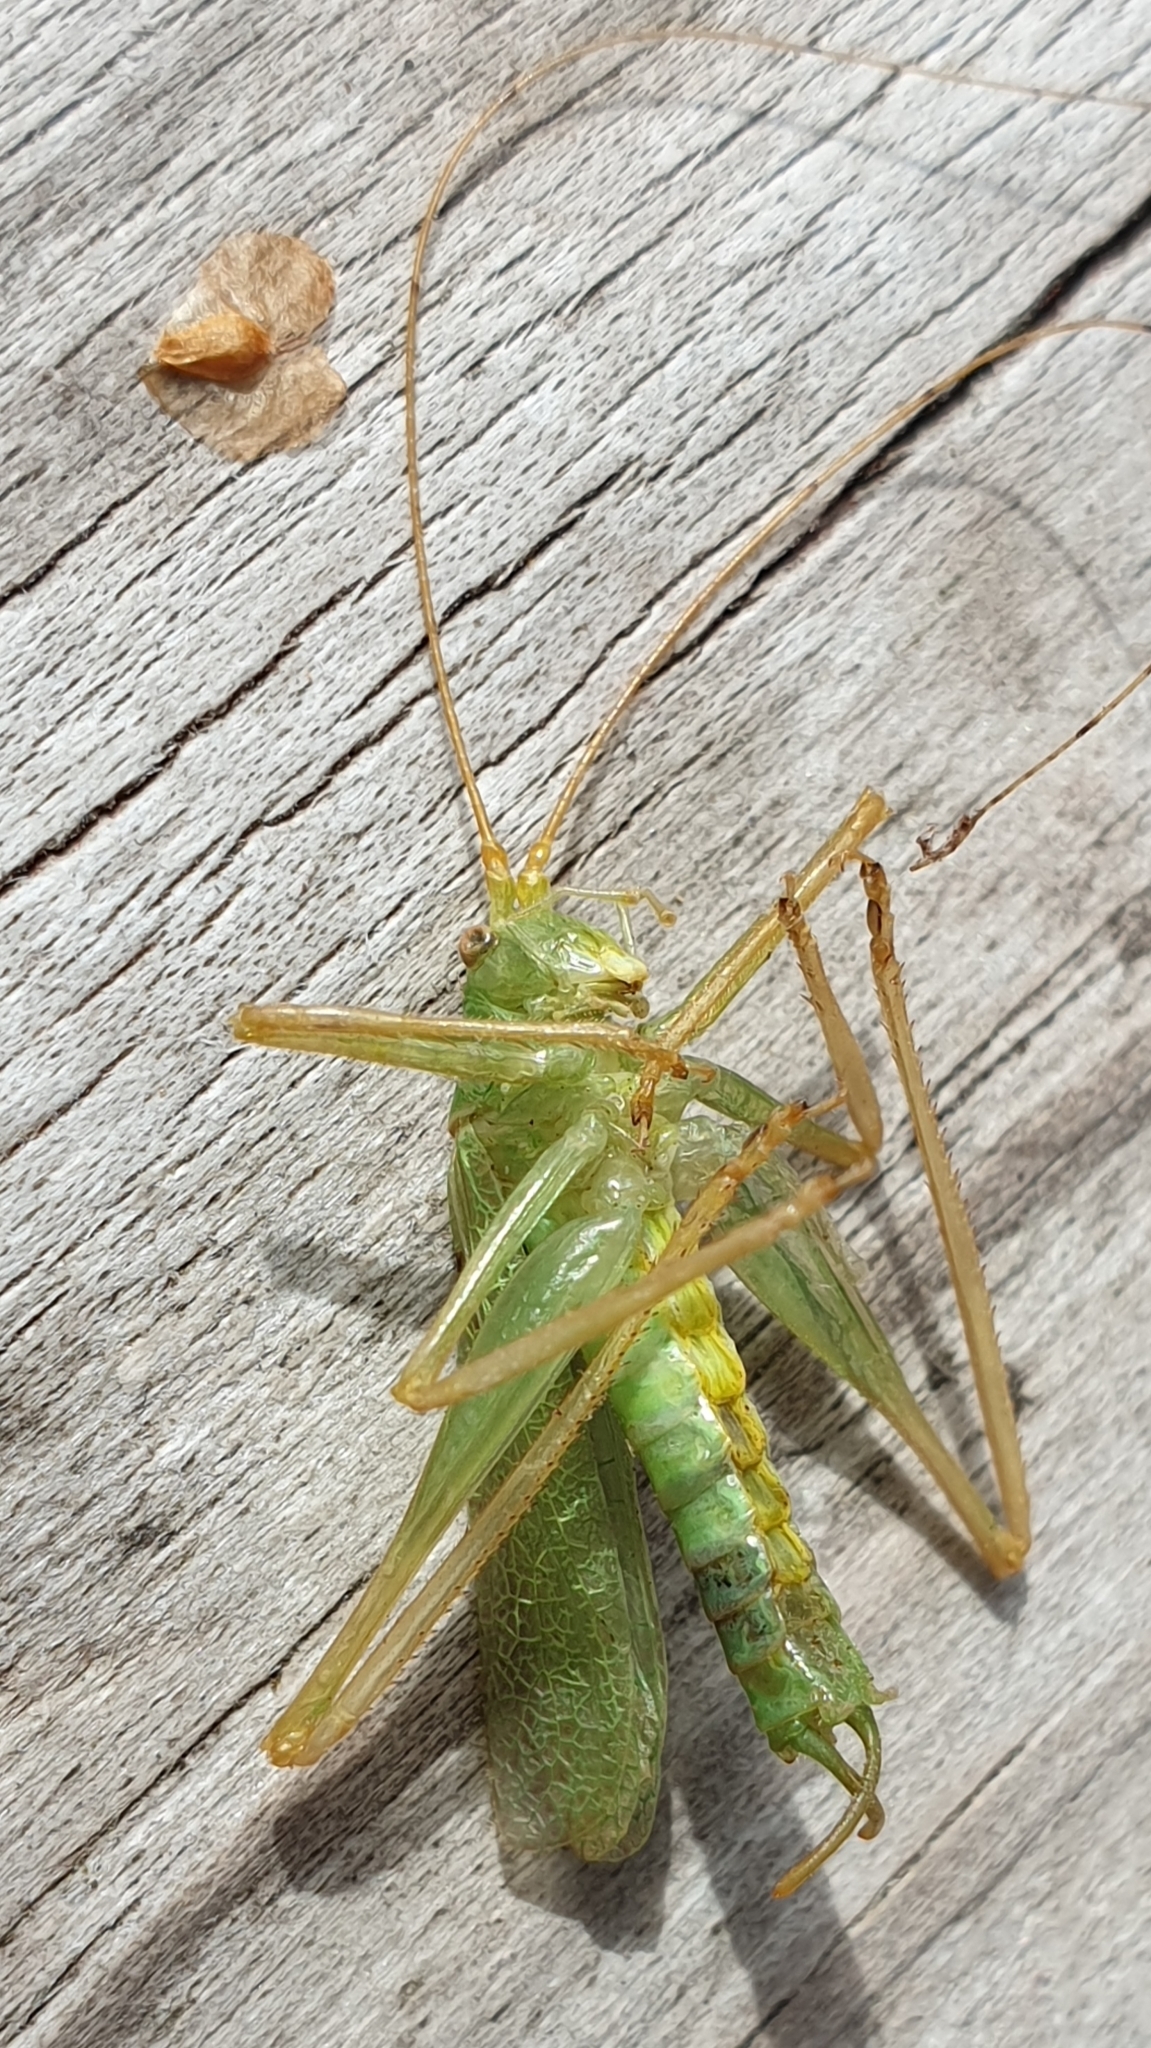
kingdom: Animalia
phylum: Arthropoda
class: Insecta
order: Orthoptera
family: Tettigoniidae
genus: Meconema
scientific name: Meconema thalassinum
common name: Oak bush-cricket
